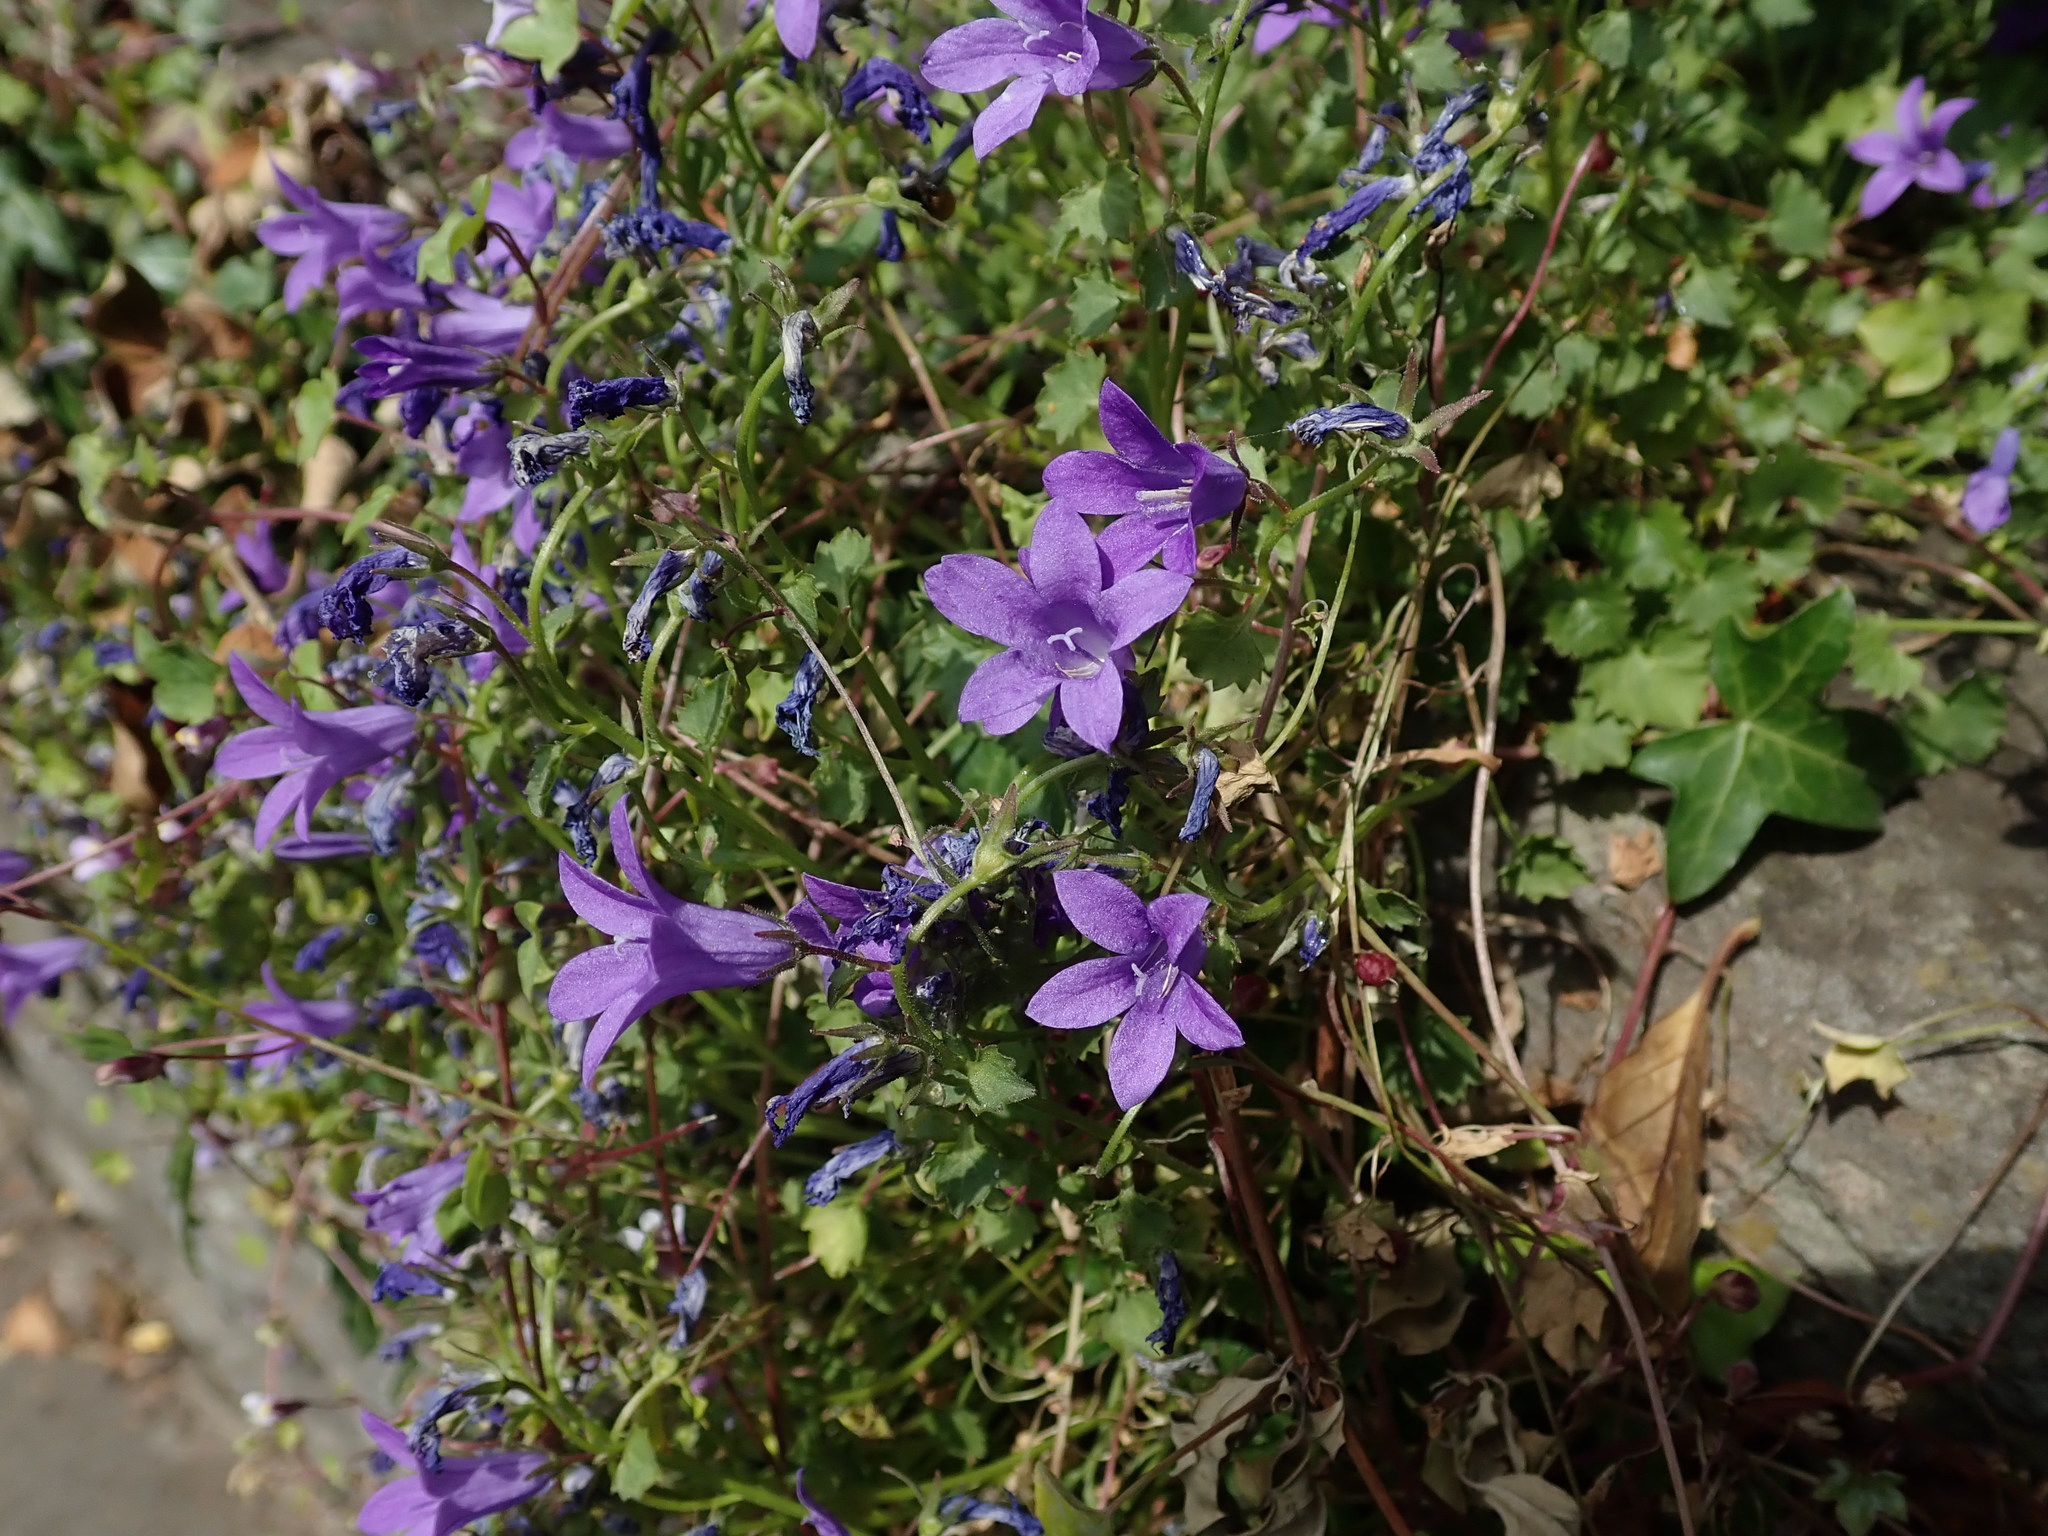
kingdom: Plantae
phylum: Tracheophyta
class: Magnoliopsida
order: Asterales
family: Campanulaceae
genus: Campanula
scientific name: Campanula portenschlagiana
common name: Adria bellflower
